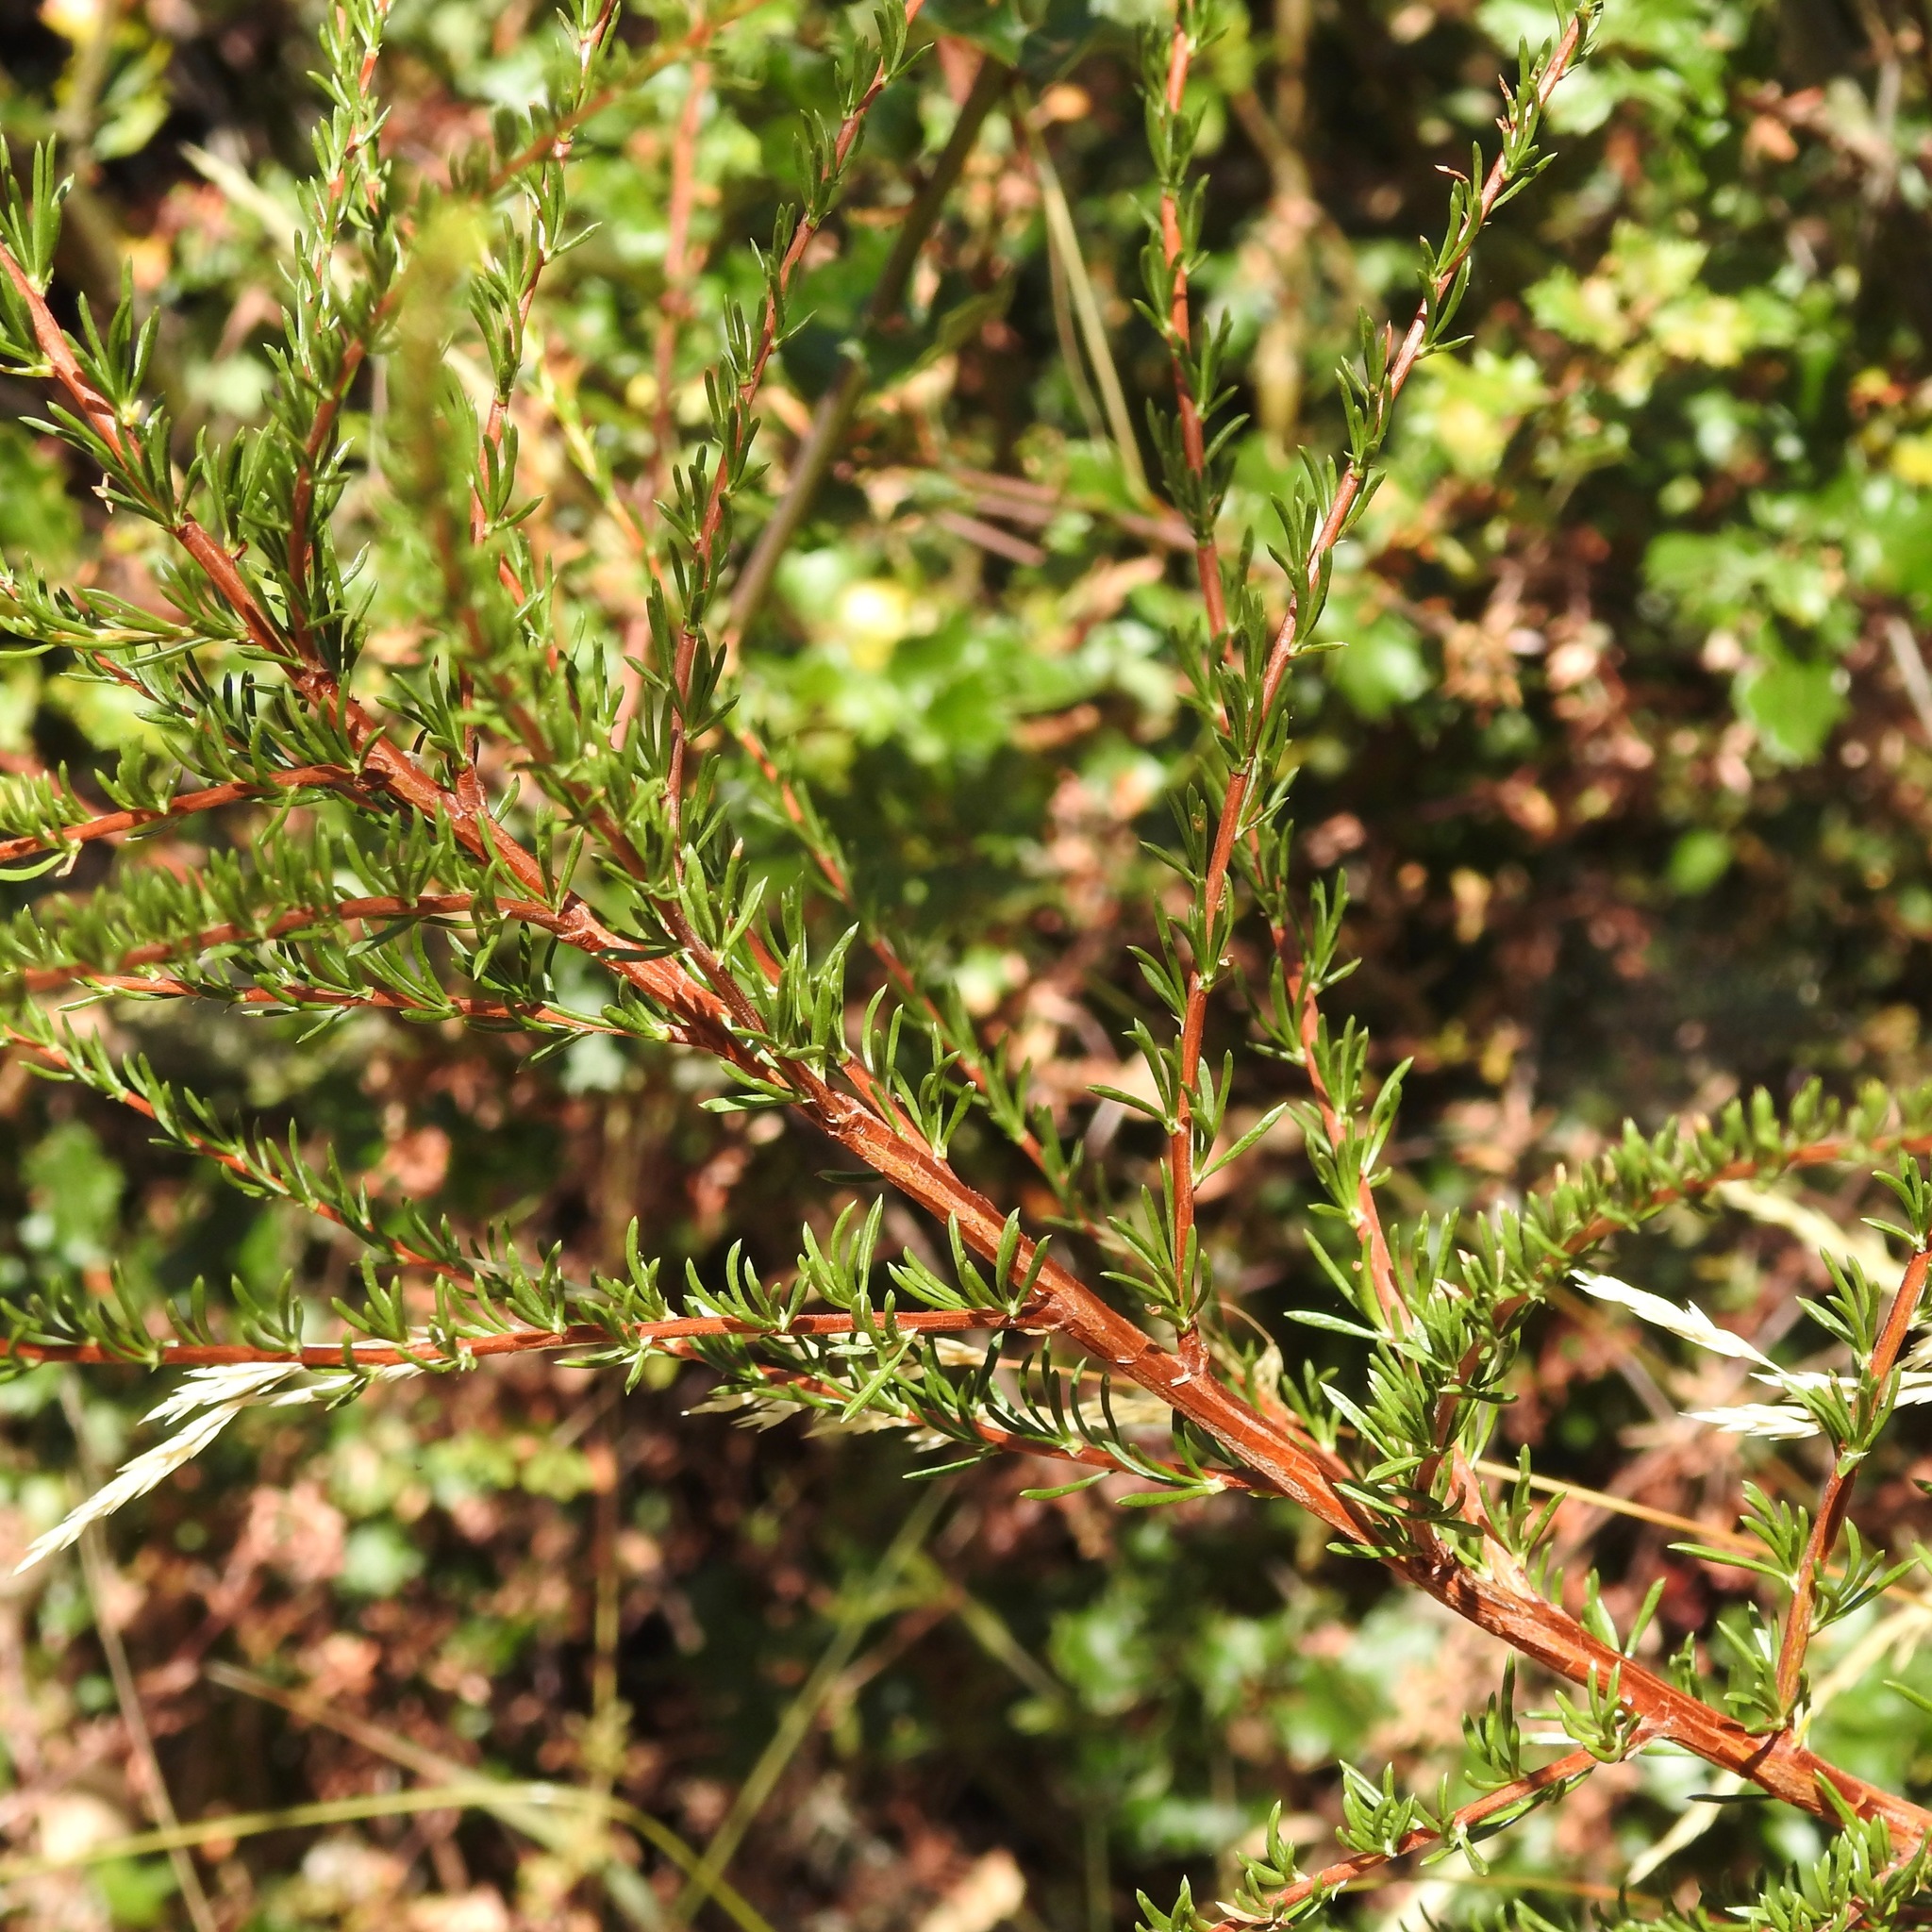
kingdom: Plantae
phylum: Tracheophyta
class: Magnoliopsida
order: Rosales
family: Rosaceae
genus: Adenostoma
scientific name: Adenostoma fasciculatum
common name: Chamise
